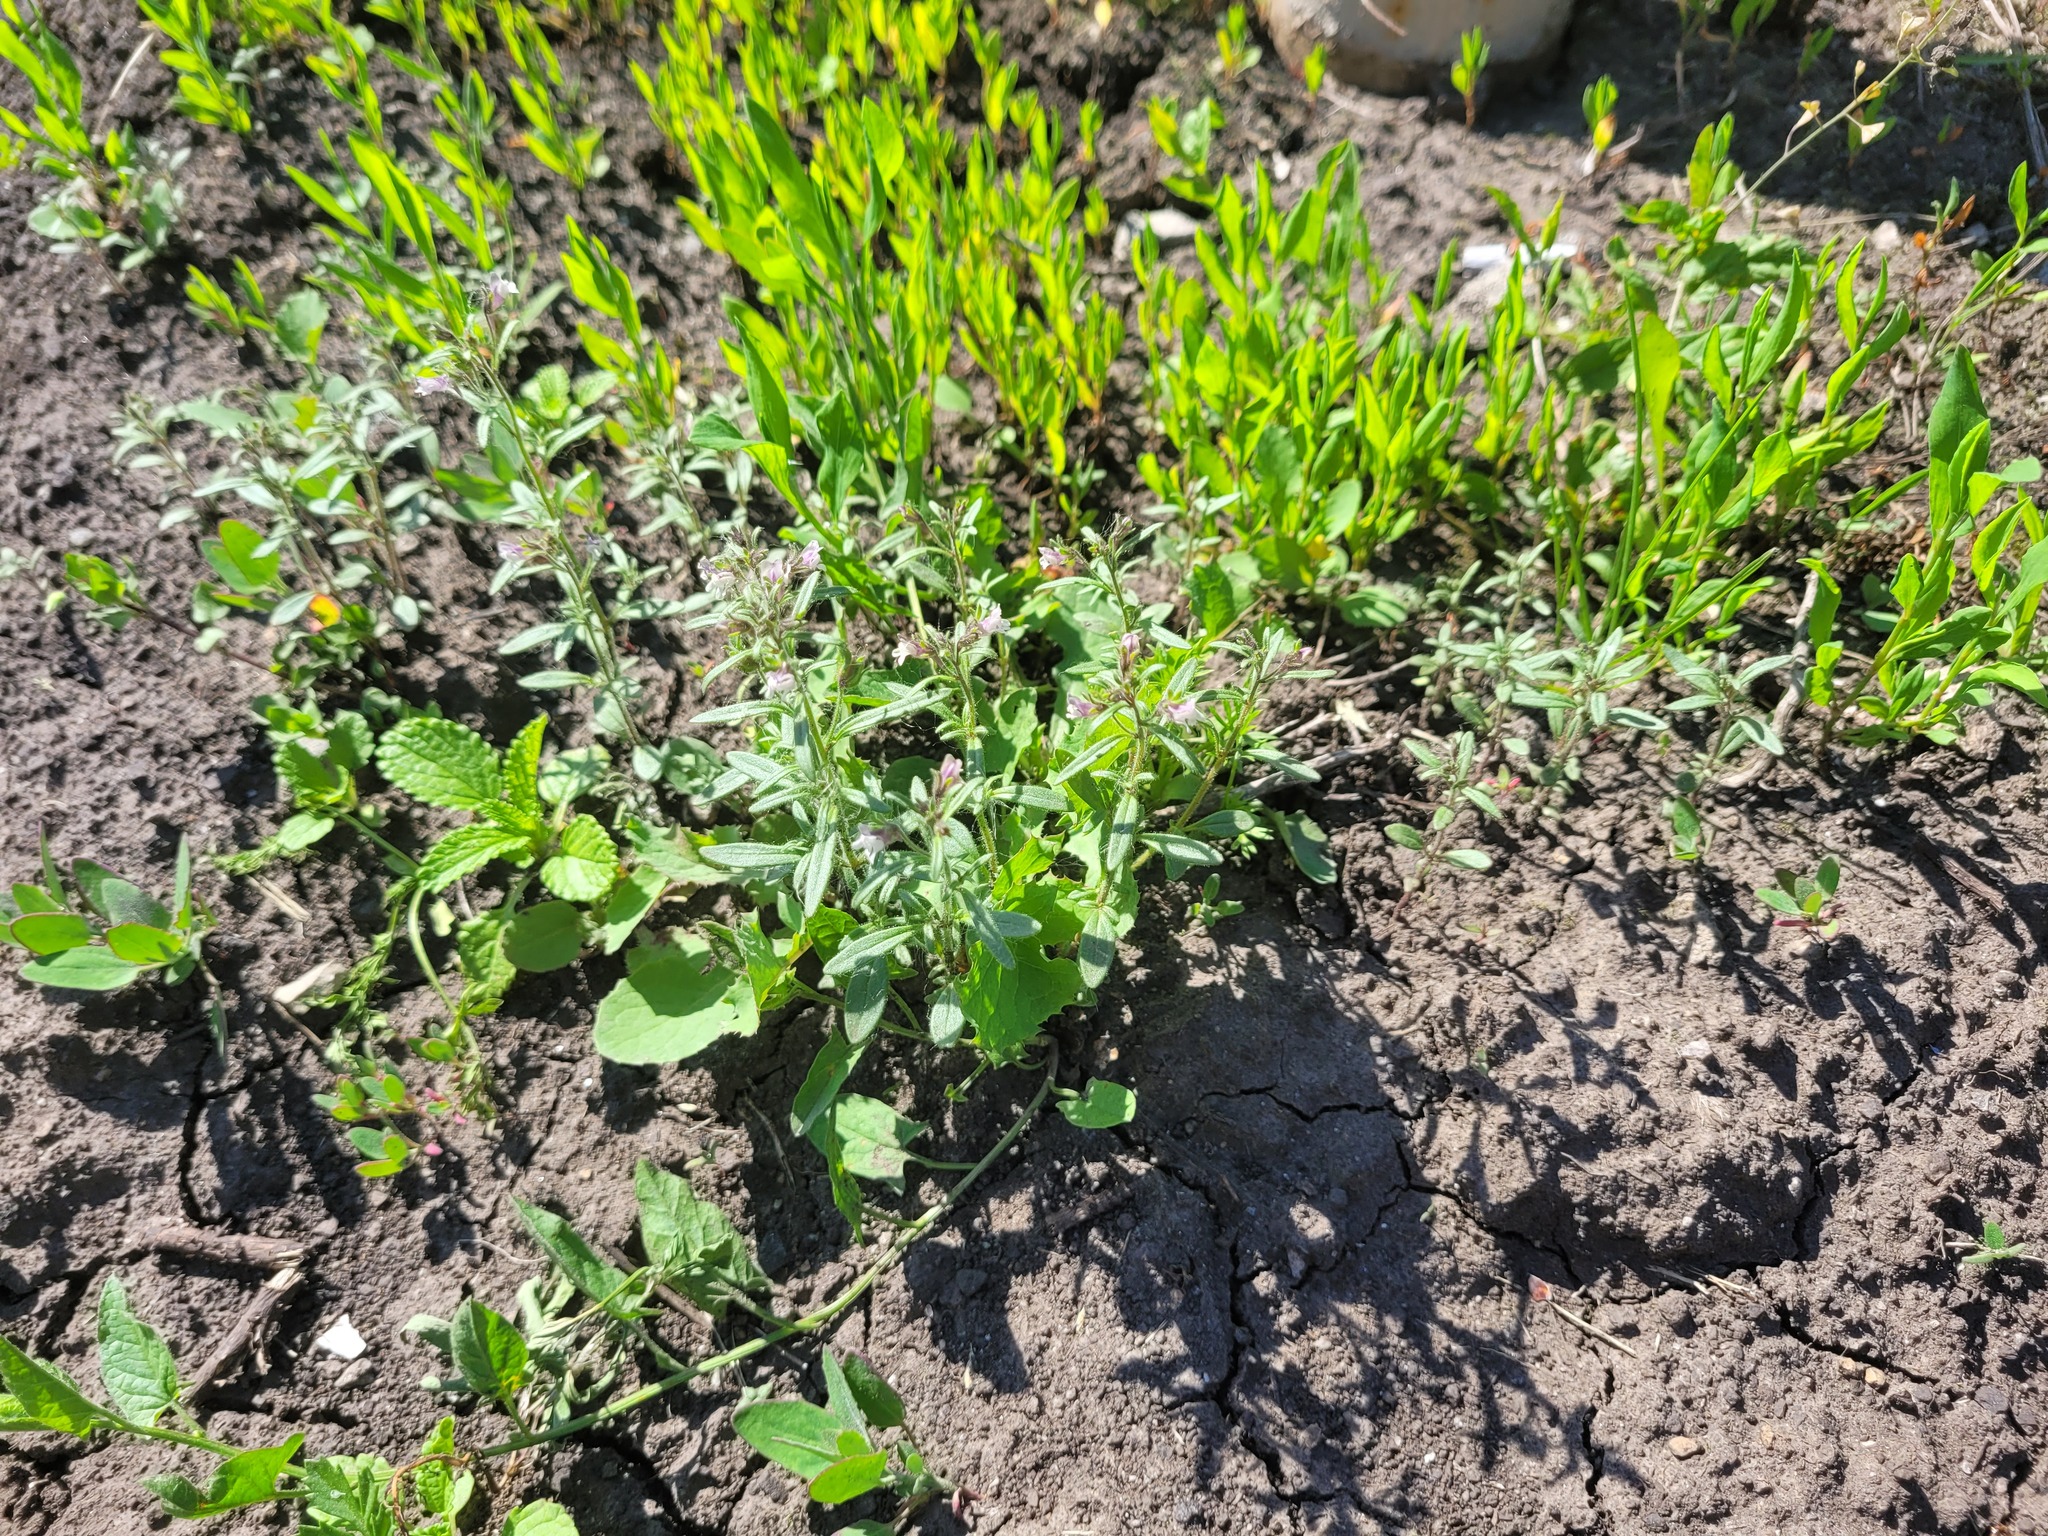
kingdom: Plantae
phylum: Tracheophyta
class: Magnoliopsida
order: Lamiales
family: Plantaginaceae
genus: Chaenorhinum
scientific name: Chaenorhinum minus
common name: Dwarf snapdragon
